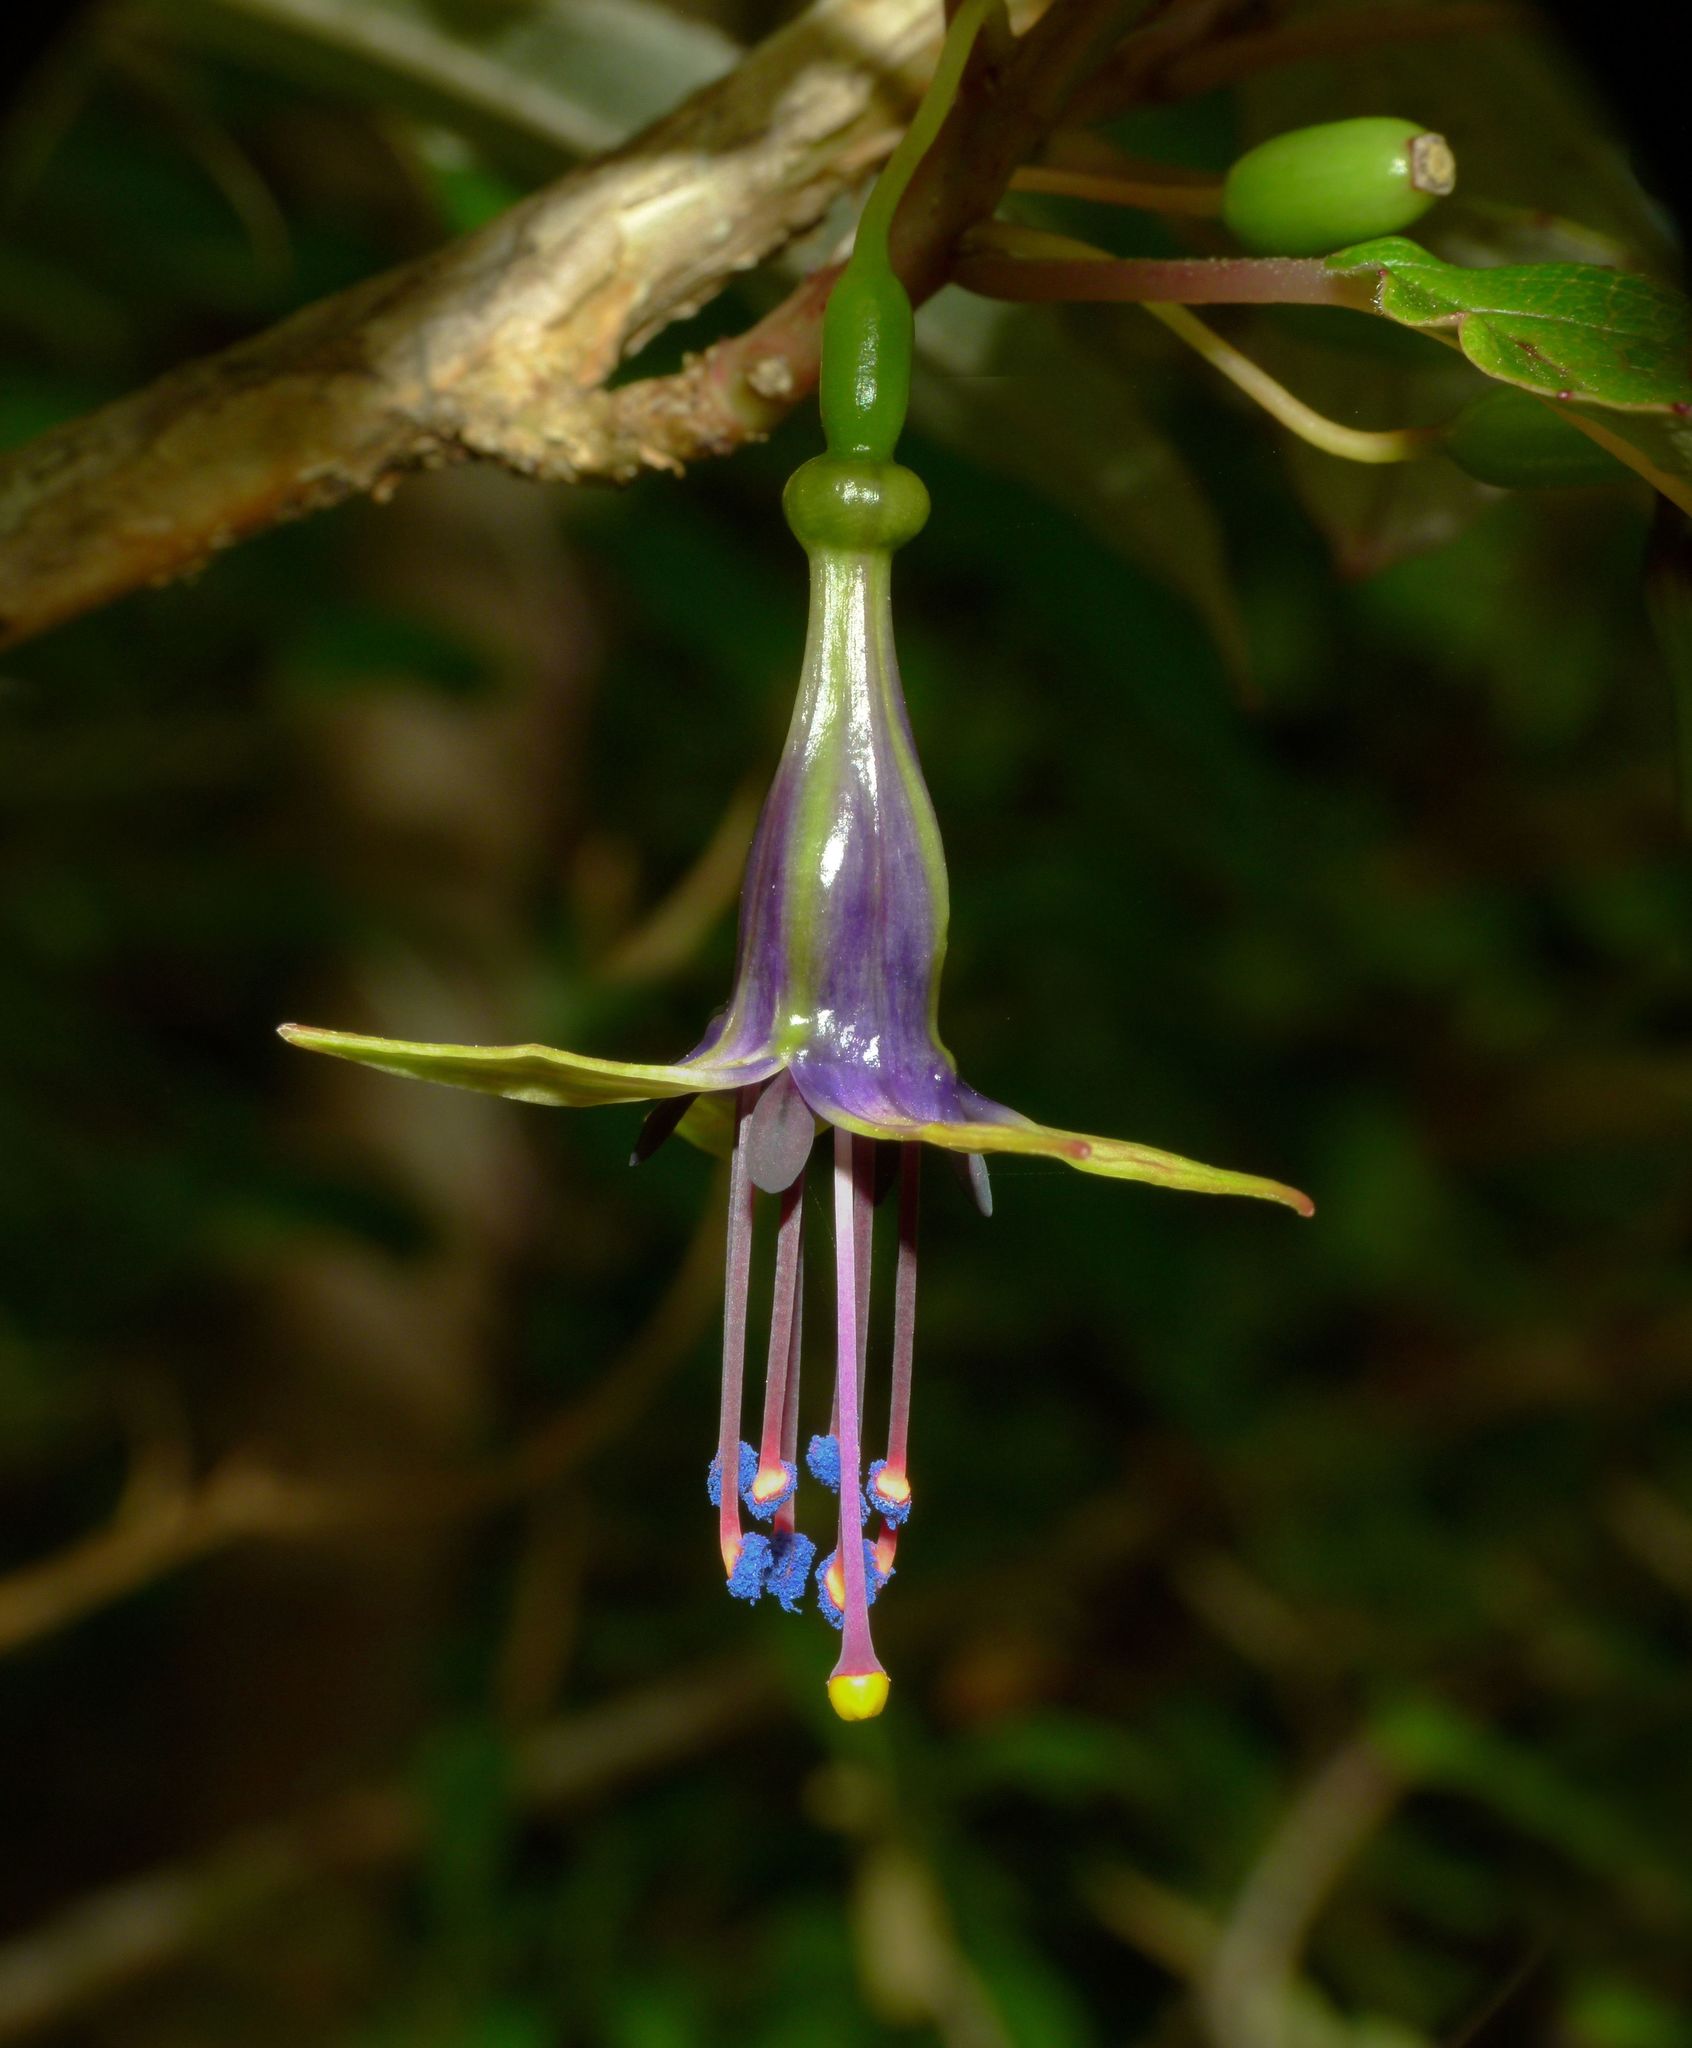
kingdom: Plantae
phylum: Tracheophyta
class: Magnoliopsida
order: Myrtales
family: Onagraceae
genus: Fuchsia
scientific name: Fuchsia excorticata
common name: Tree fuchsia
